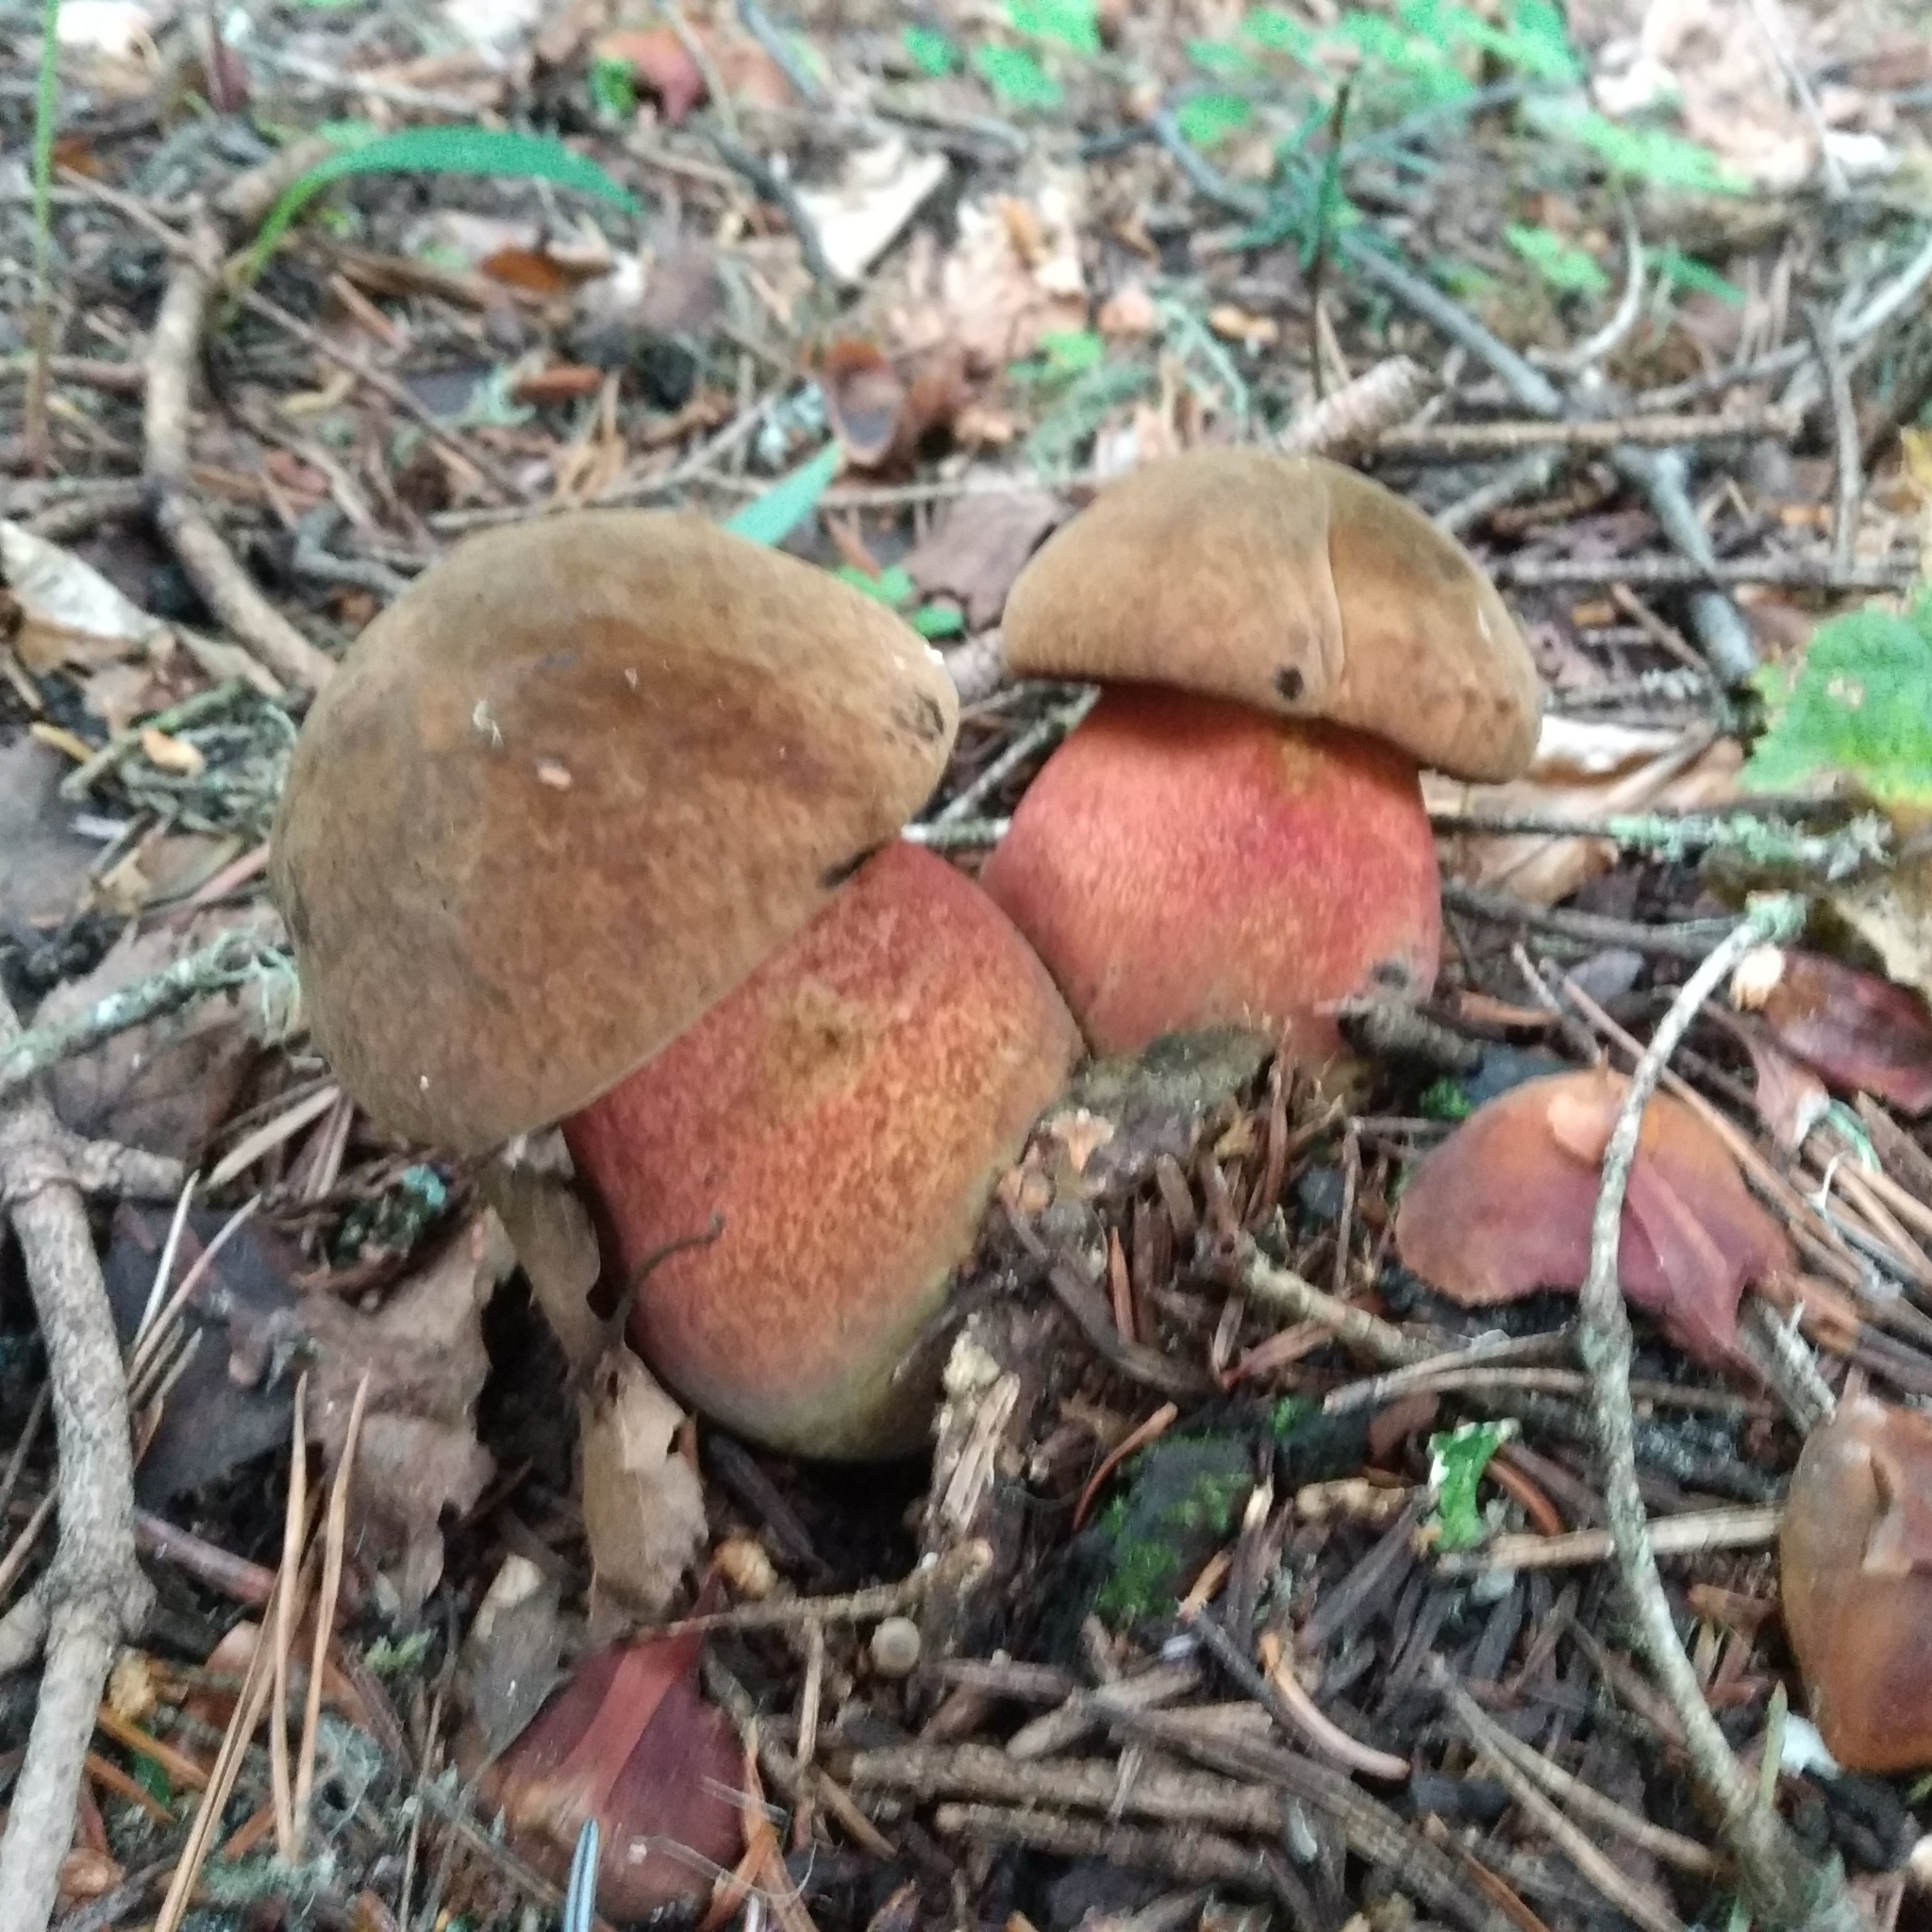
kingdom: Fungi
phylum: Basidiomycota
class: Agaricomycetes
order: Boletales
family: Boletaceae
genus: Neoboletus
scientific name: Neoboletus erythropus
